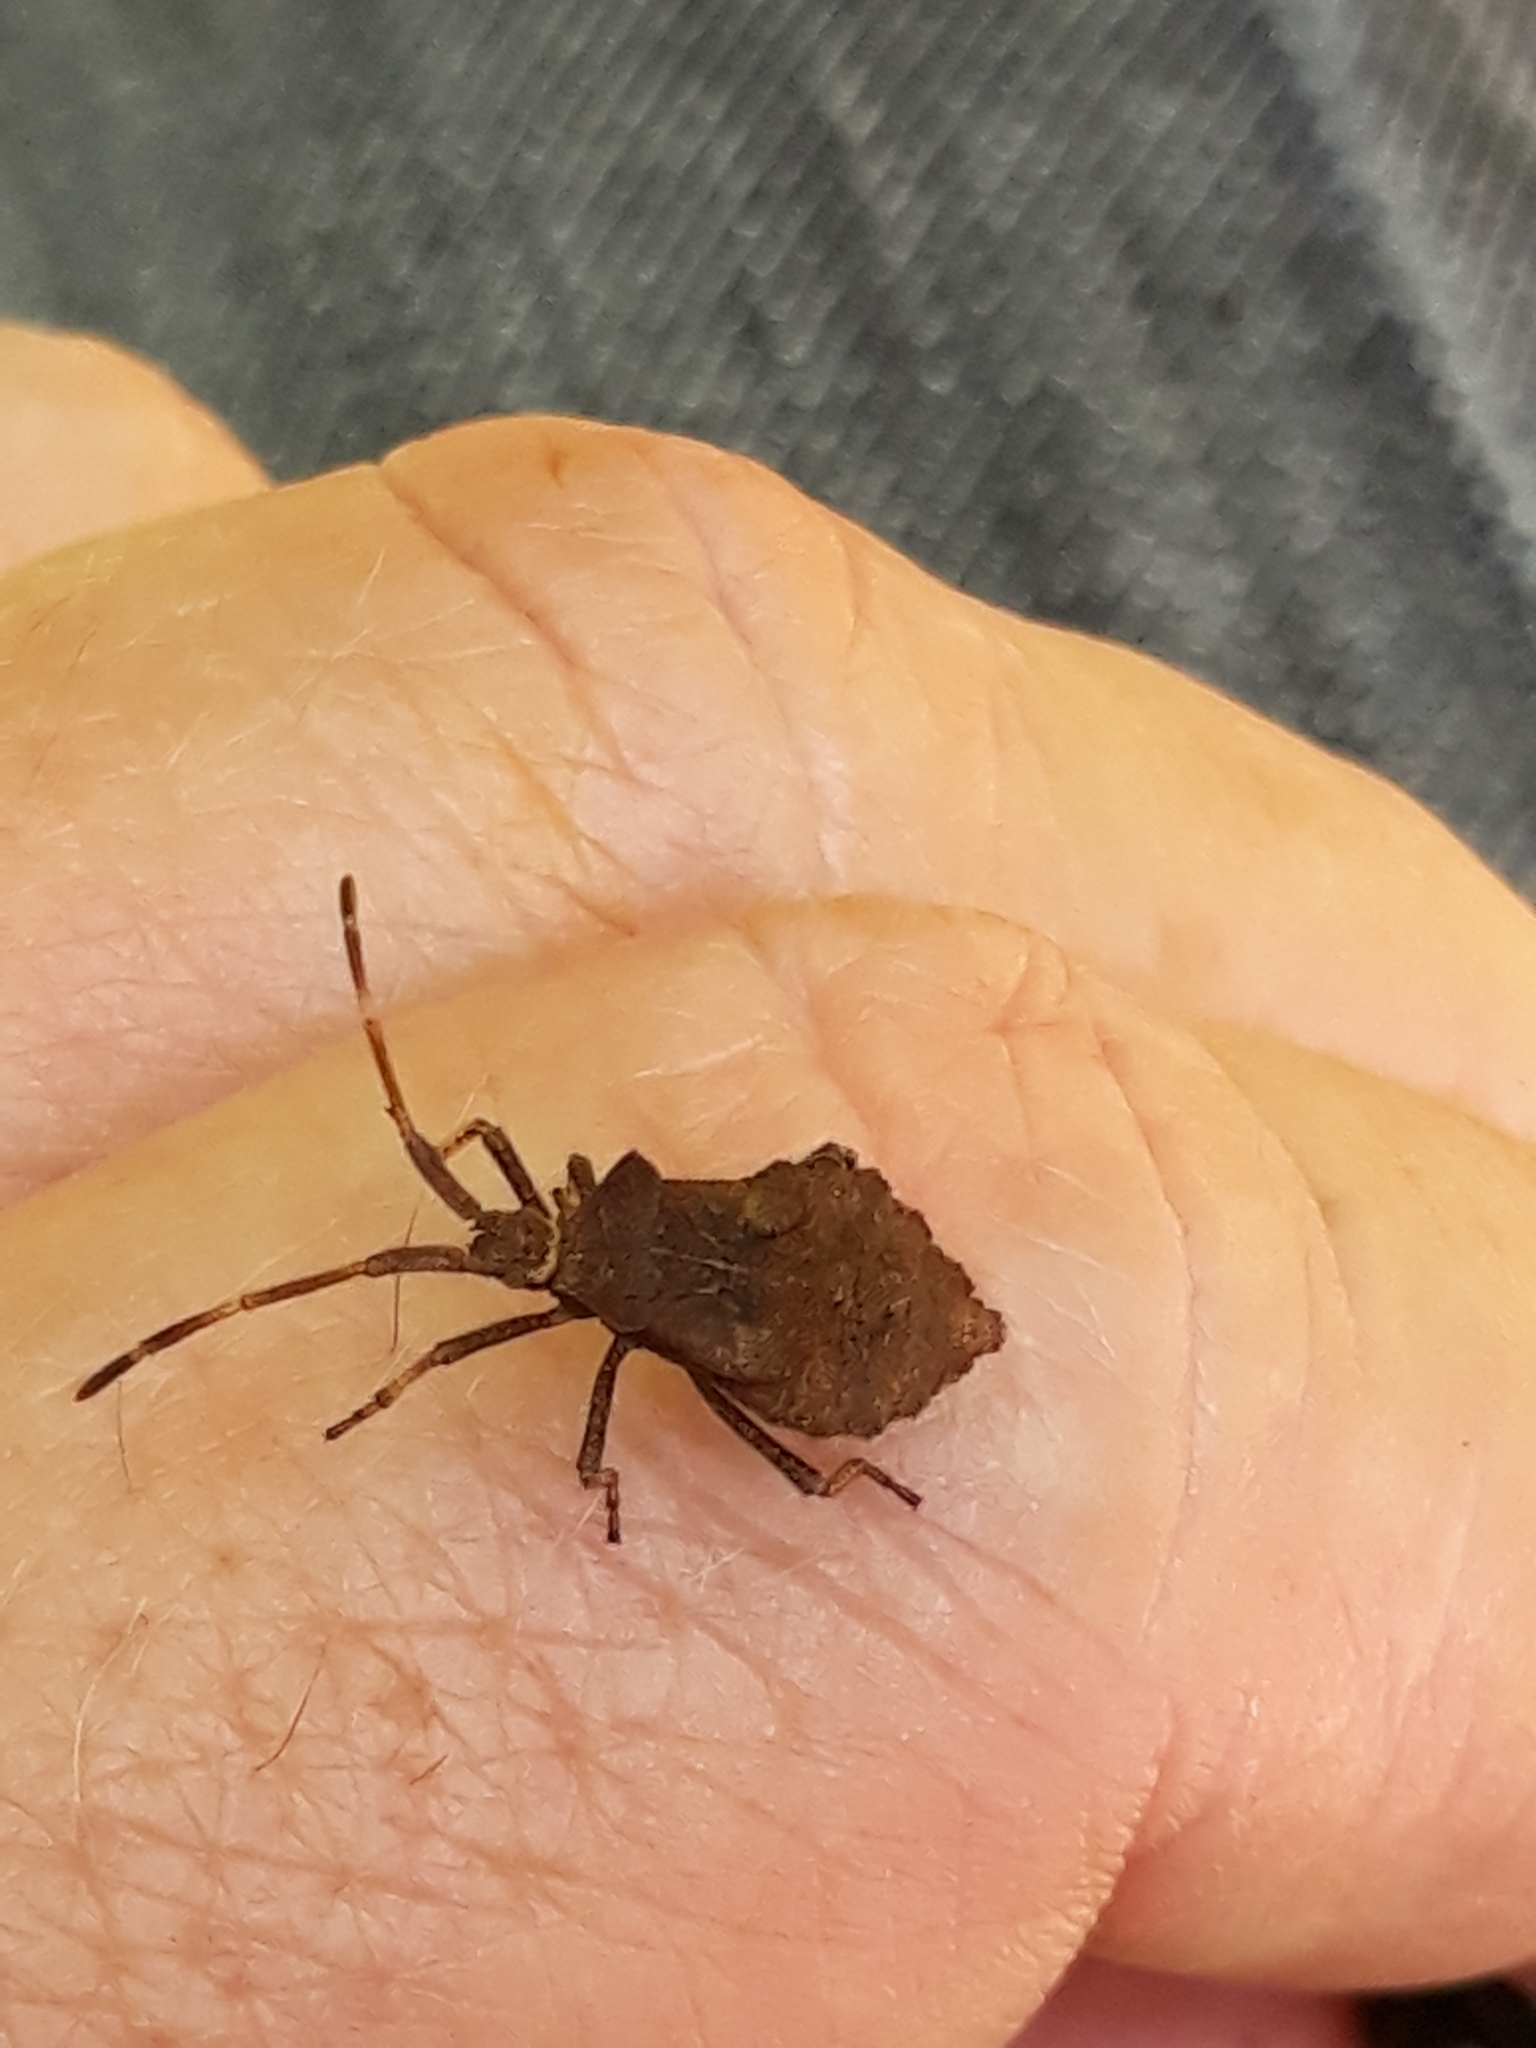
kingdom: Animalia
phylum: Arthropoda
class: Insecta
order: Hemiptera
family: Coreidae
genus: Coreus
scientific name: Coreus marginatus
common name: Dock bug
